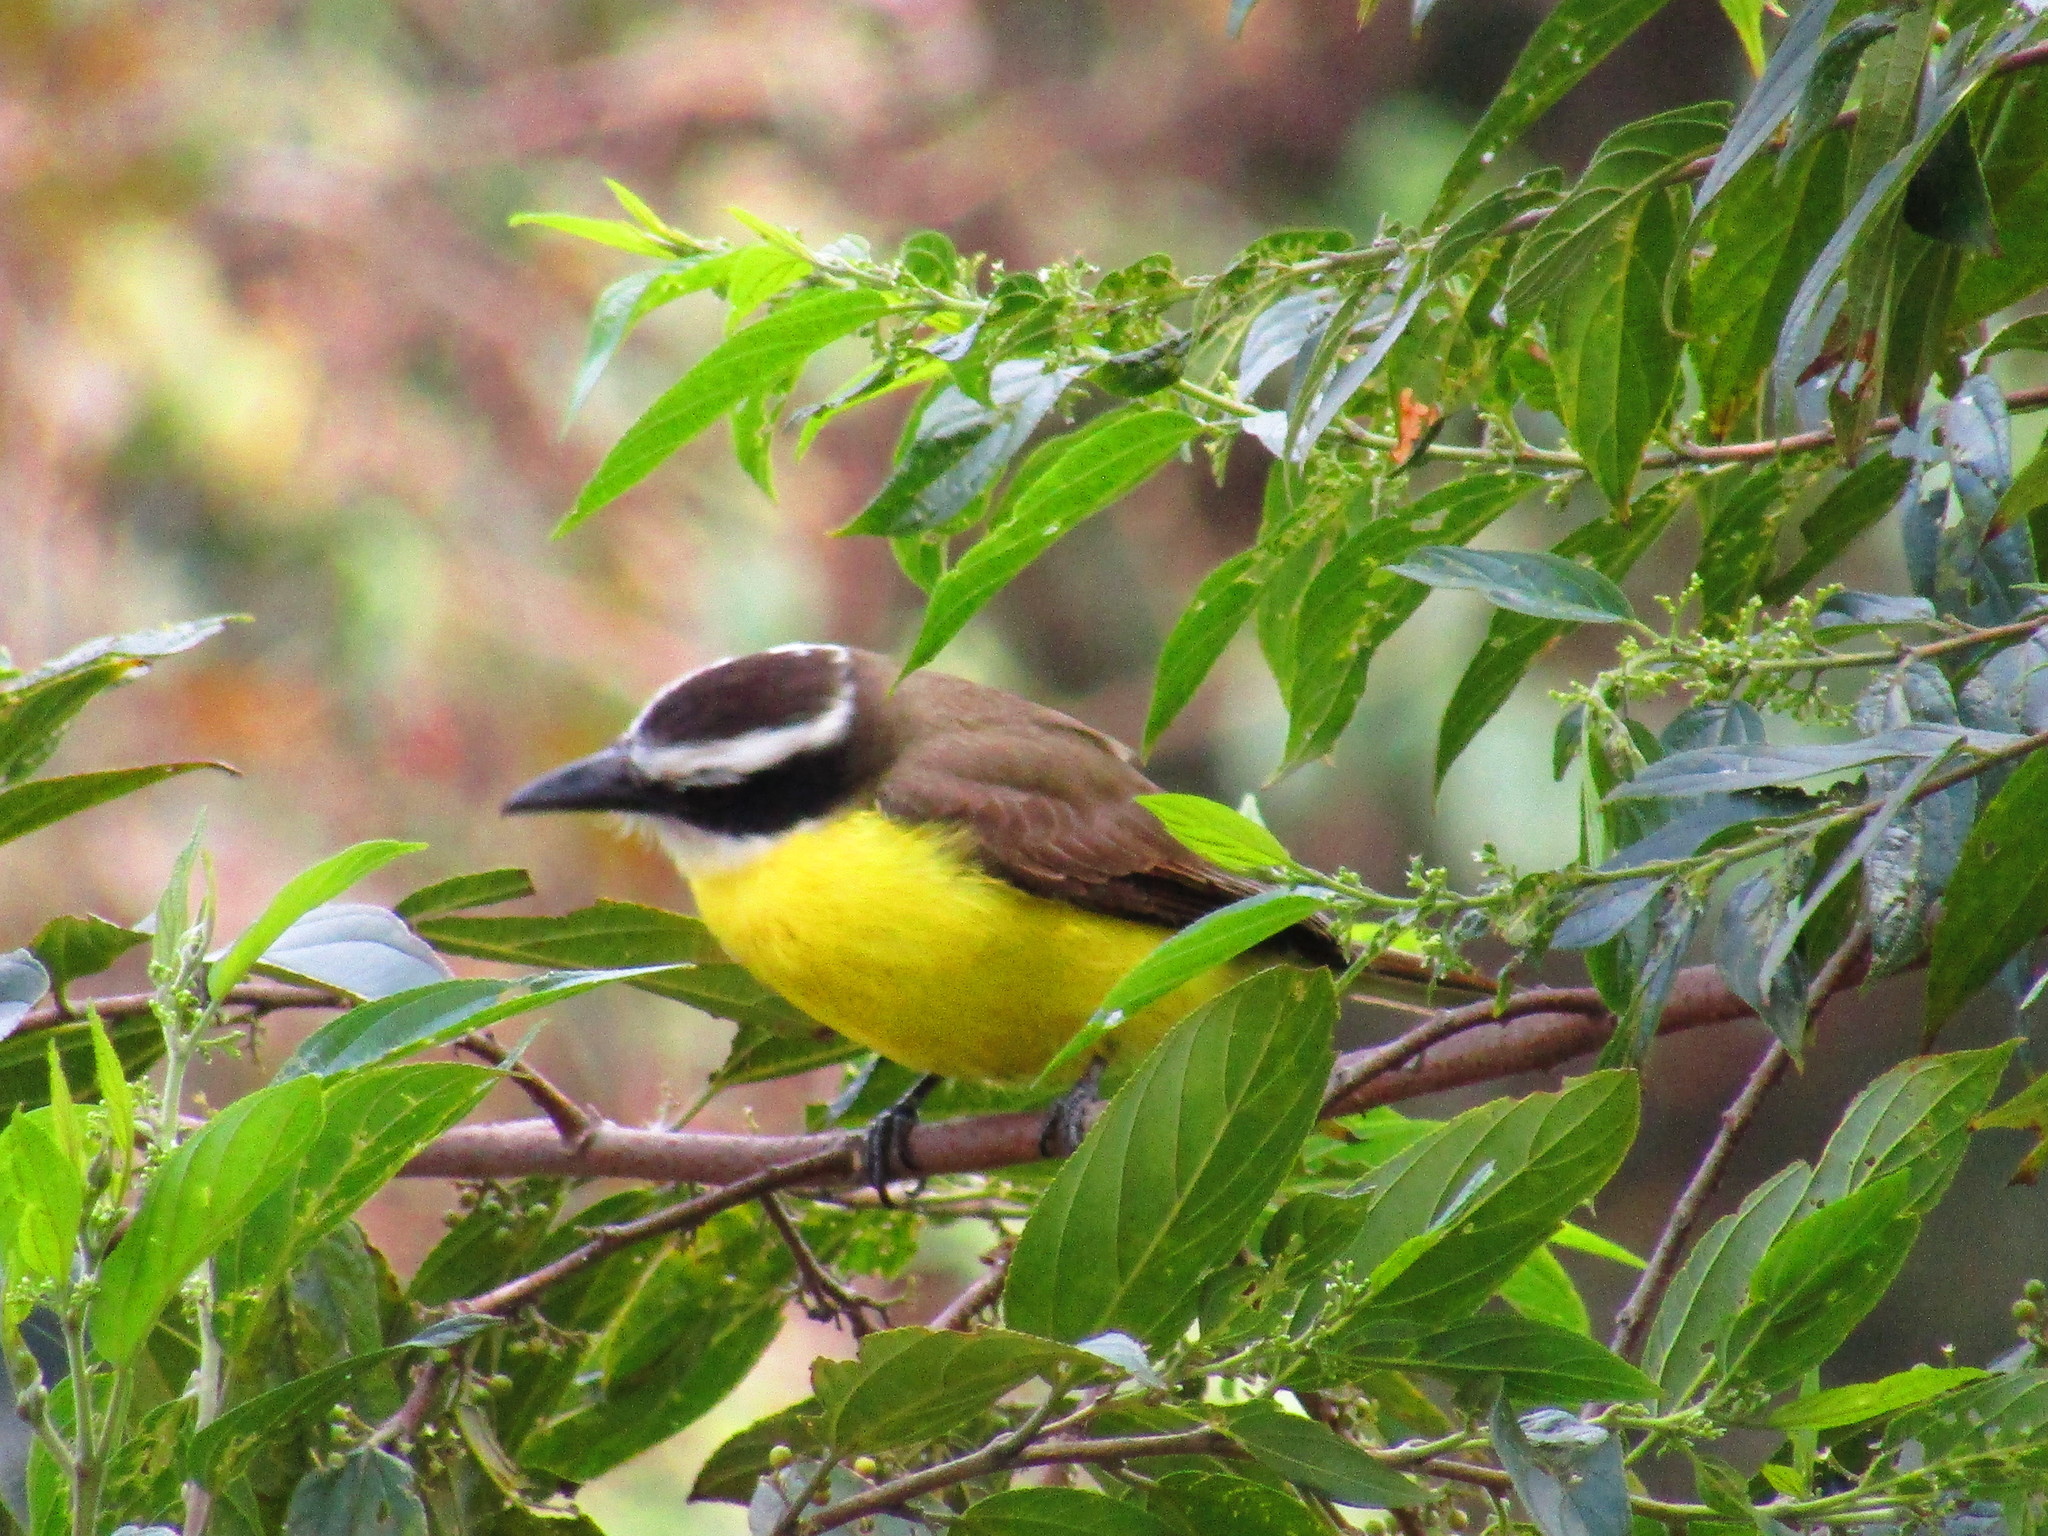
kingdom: Animalia
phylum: Chordata
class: Aves
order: Passeriformes
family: Tyrannidae
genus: Pitangus
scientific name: Pitangus sulphuratus
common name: Great kiskadee
